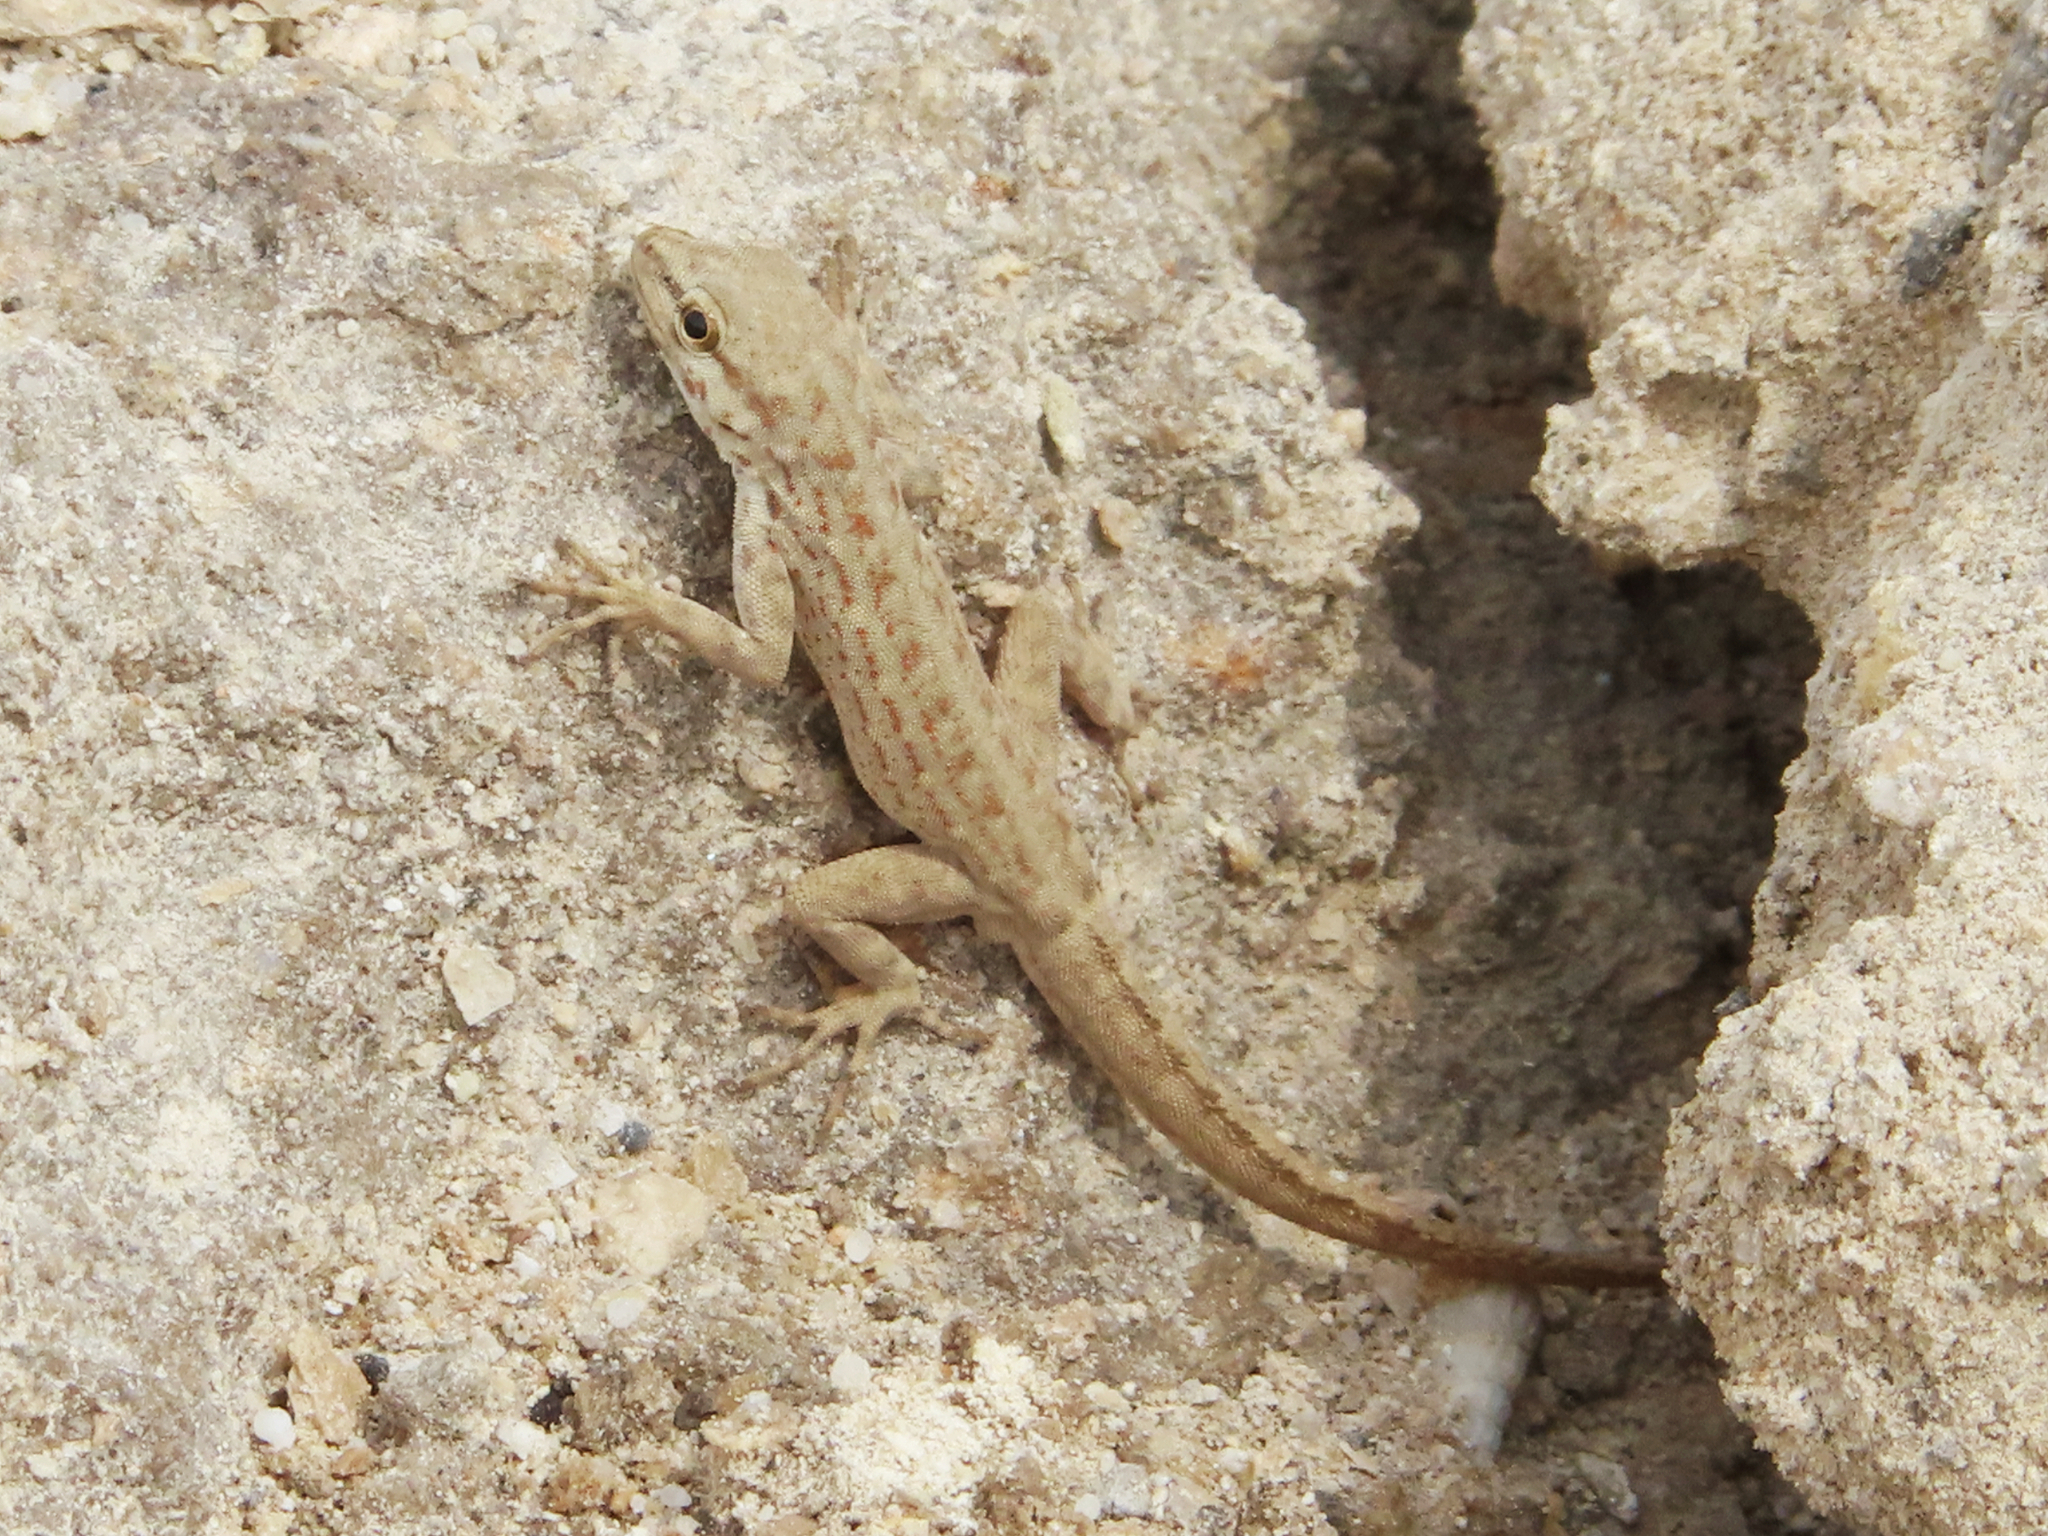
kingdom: Animalia
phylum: Chordata
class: Squamata
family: Sphaerodactylidae
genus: Pristurus
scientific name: Pristurus rupestris
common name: Blanford’s semaphore gecko
